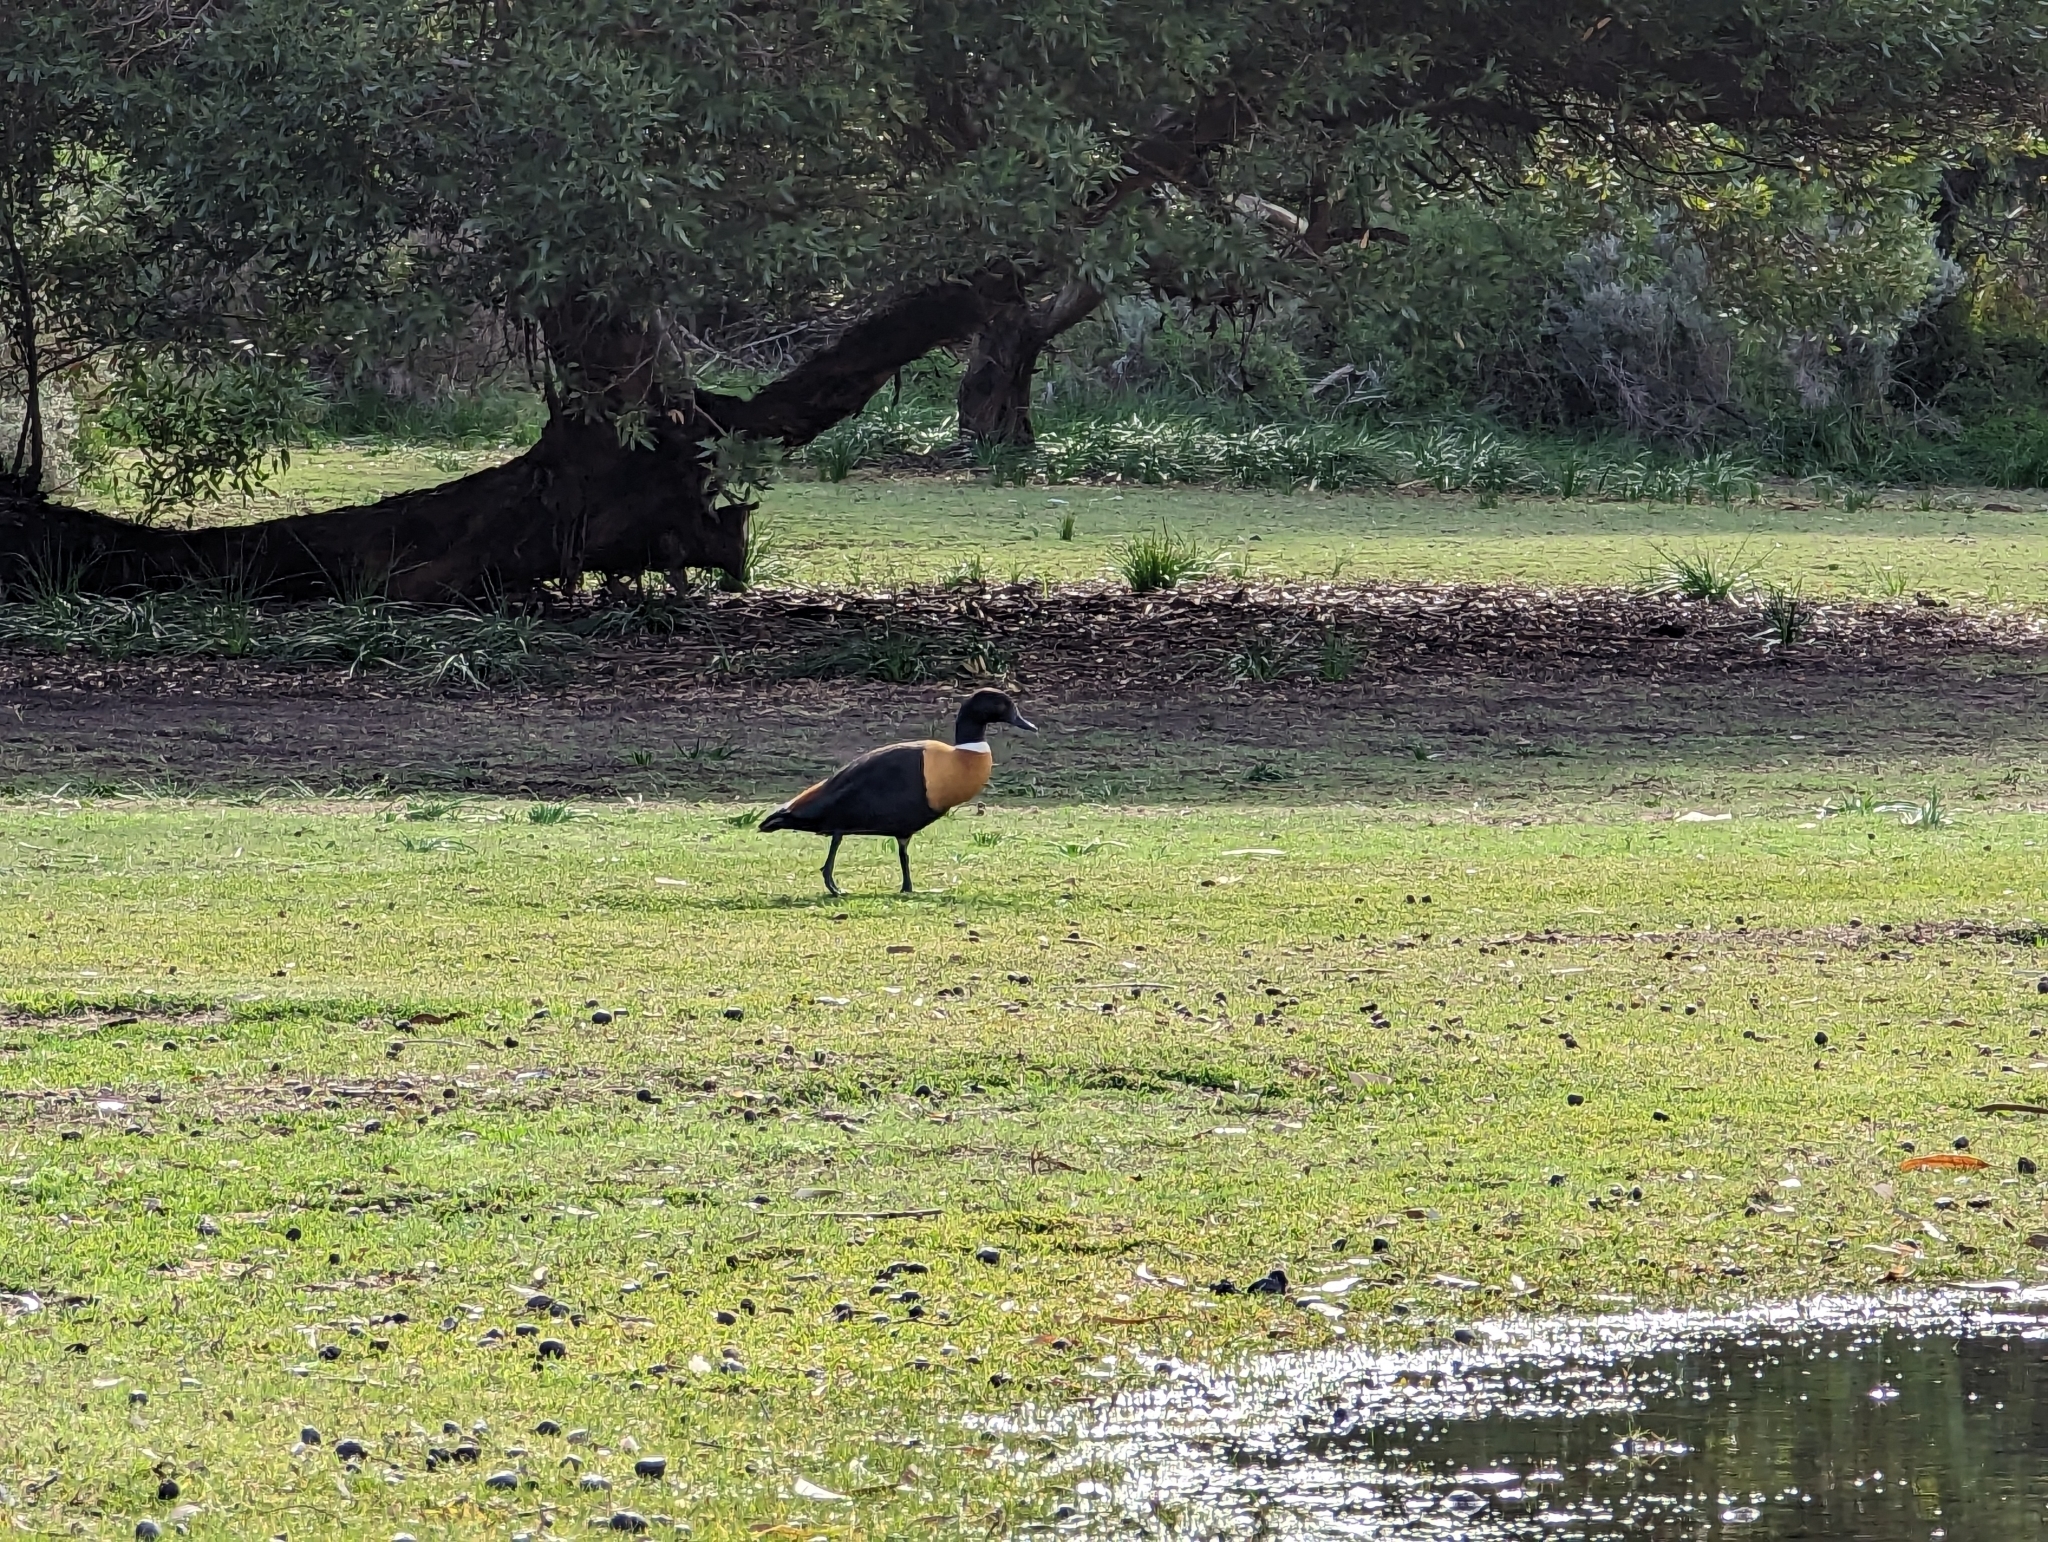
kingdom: Animalia
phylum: Chordata
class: Aves
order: Anseriformes
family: Anatidae
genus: Tadorna
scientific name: Tadorna tadornoides
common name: Australian shelduck
